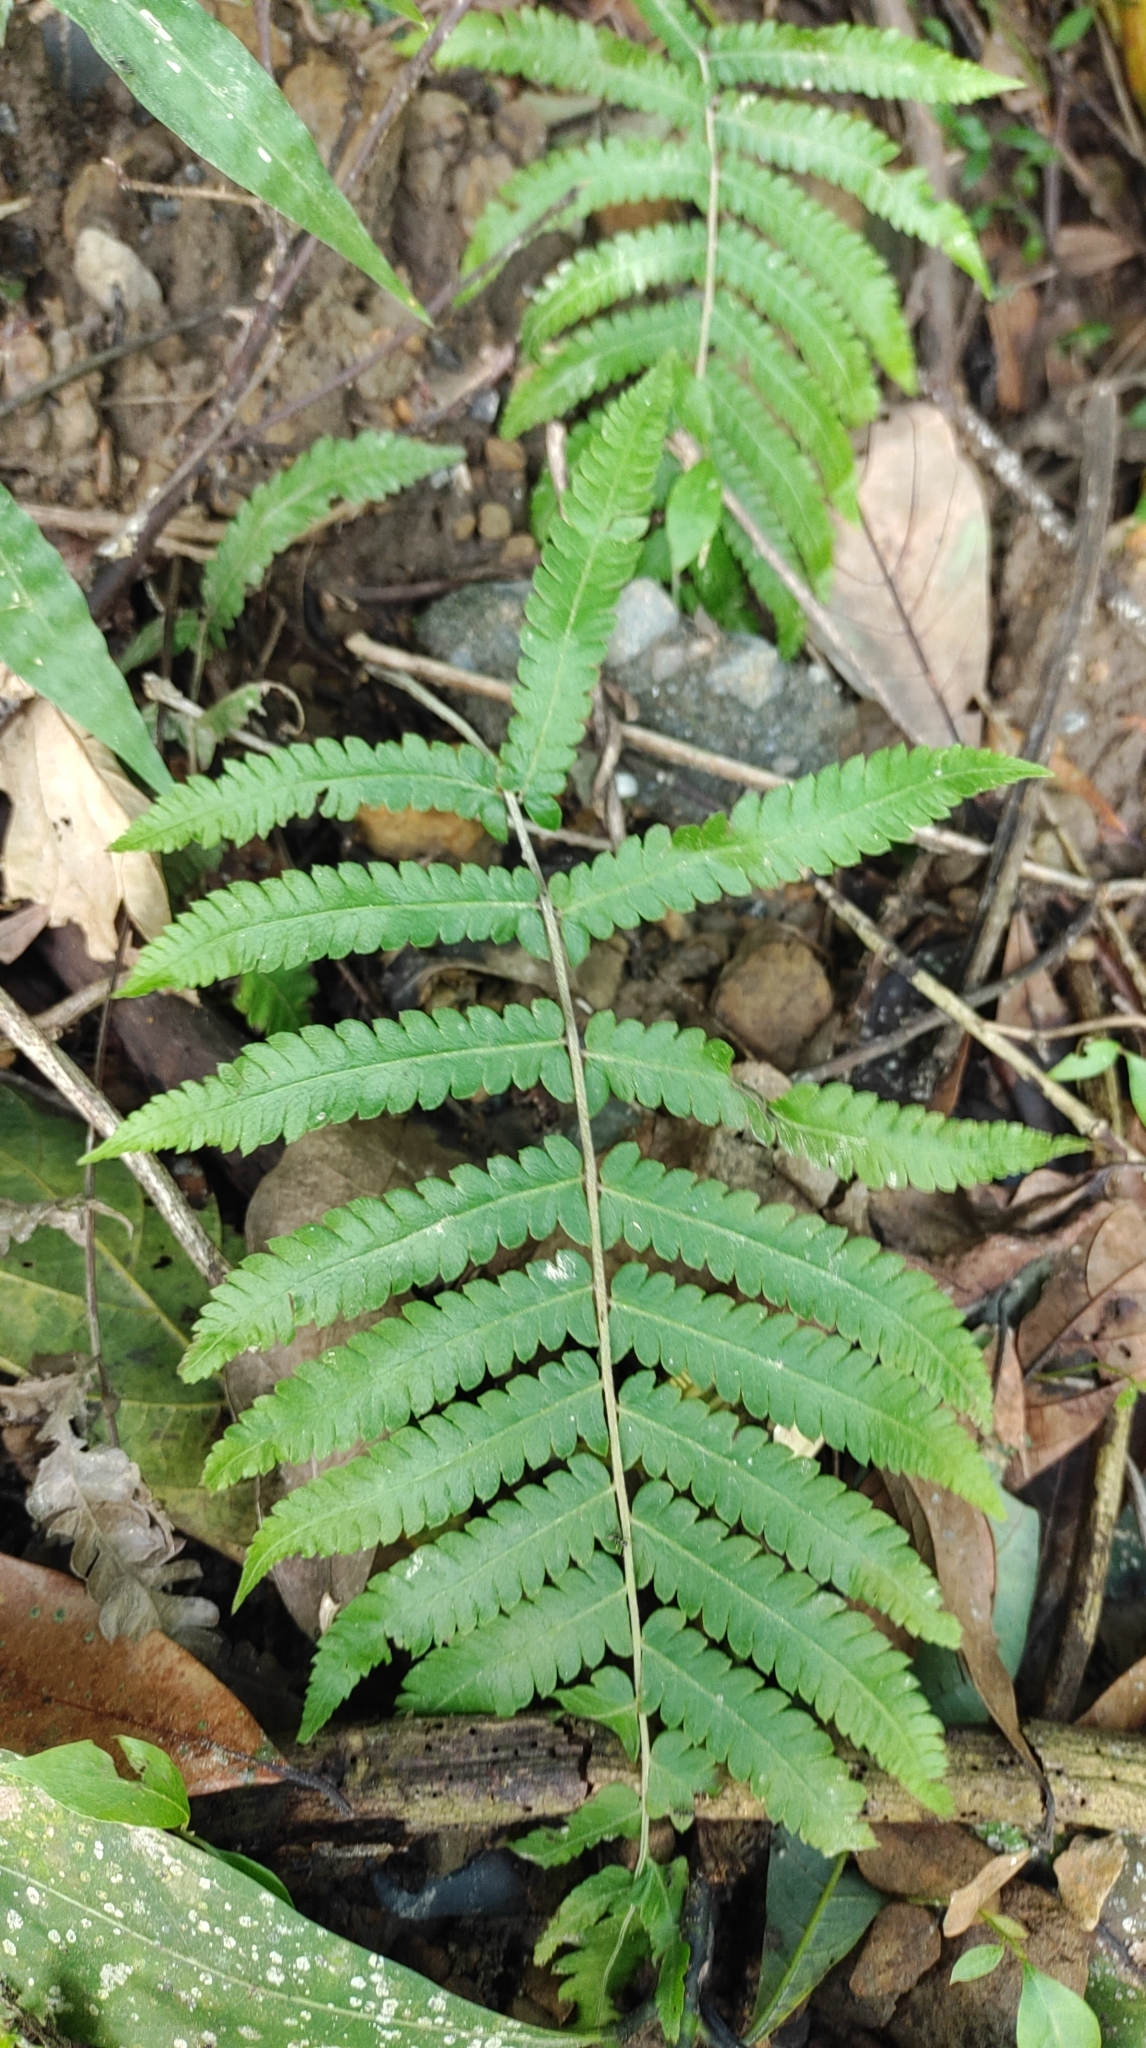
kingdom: Plantae
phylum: Tracheophyta
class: Polypodiopsida
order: Polypodiales
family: Thelypteridaceae
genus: Christella
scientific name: Christella acuminata
